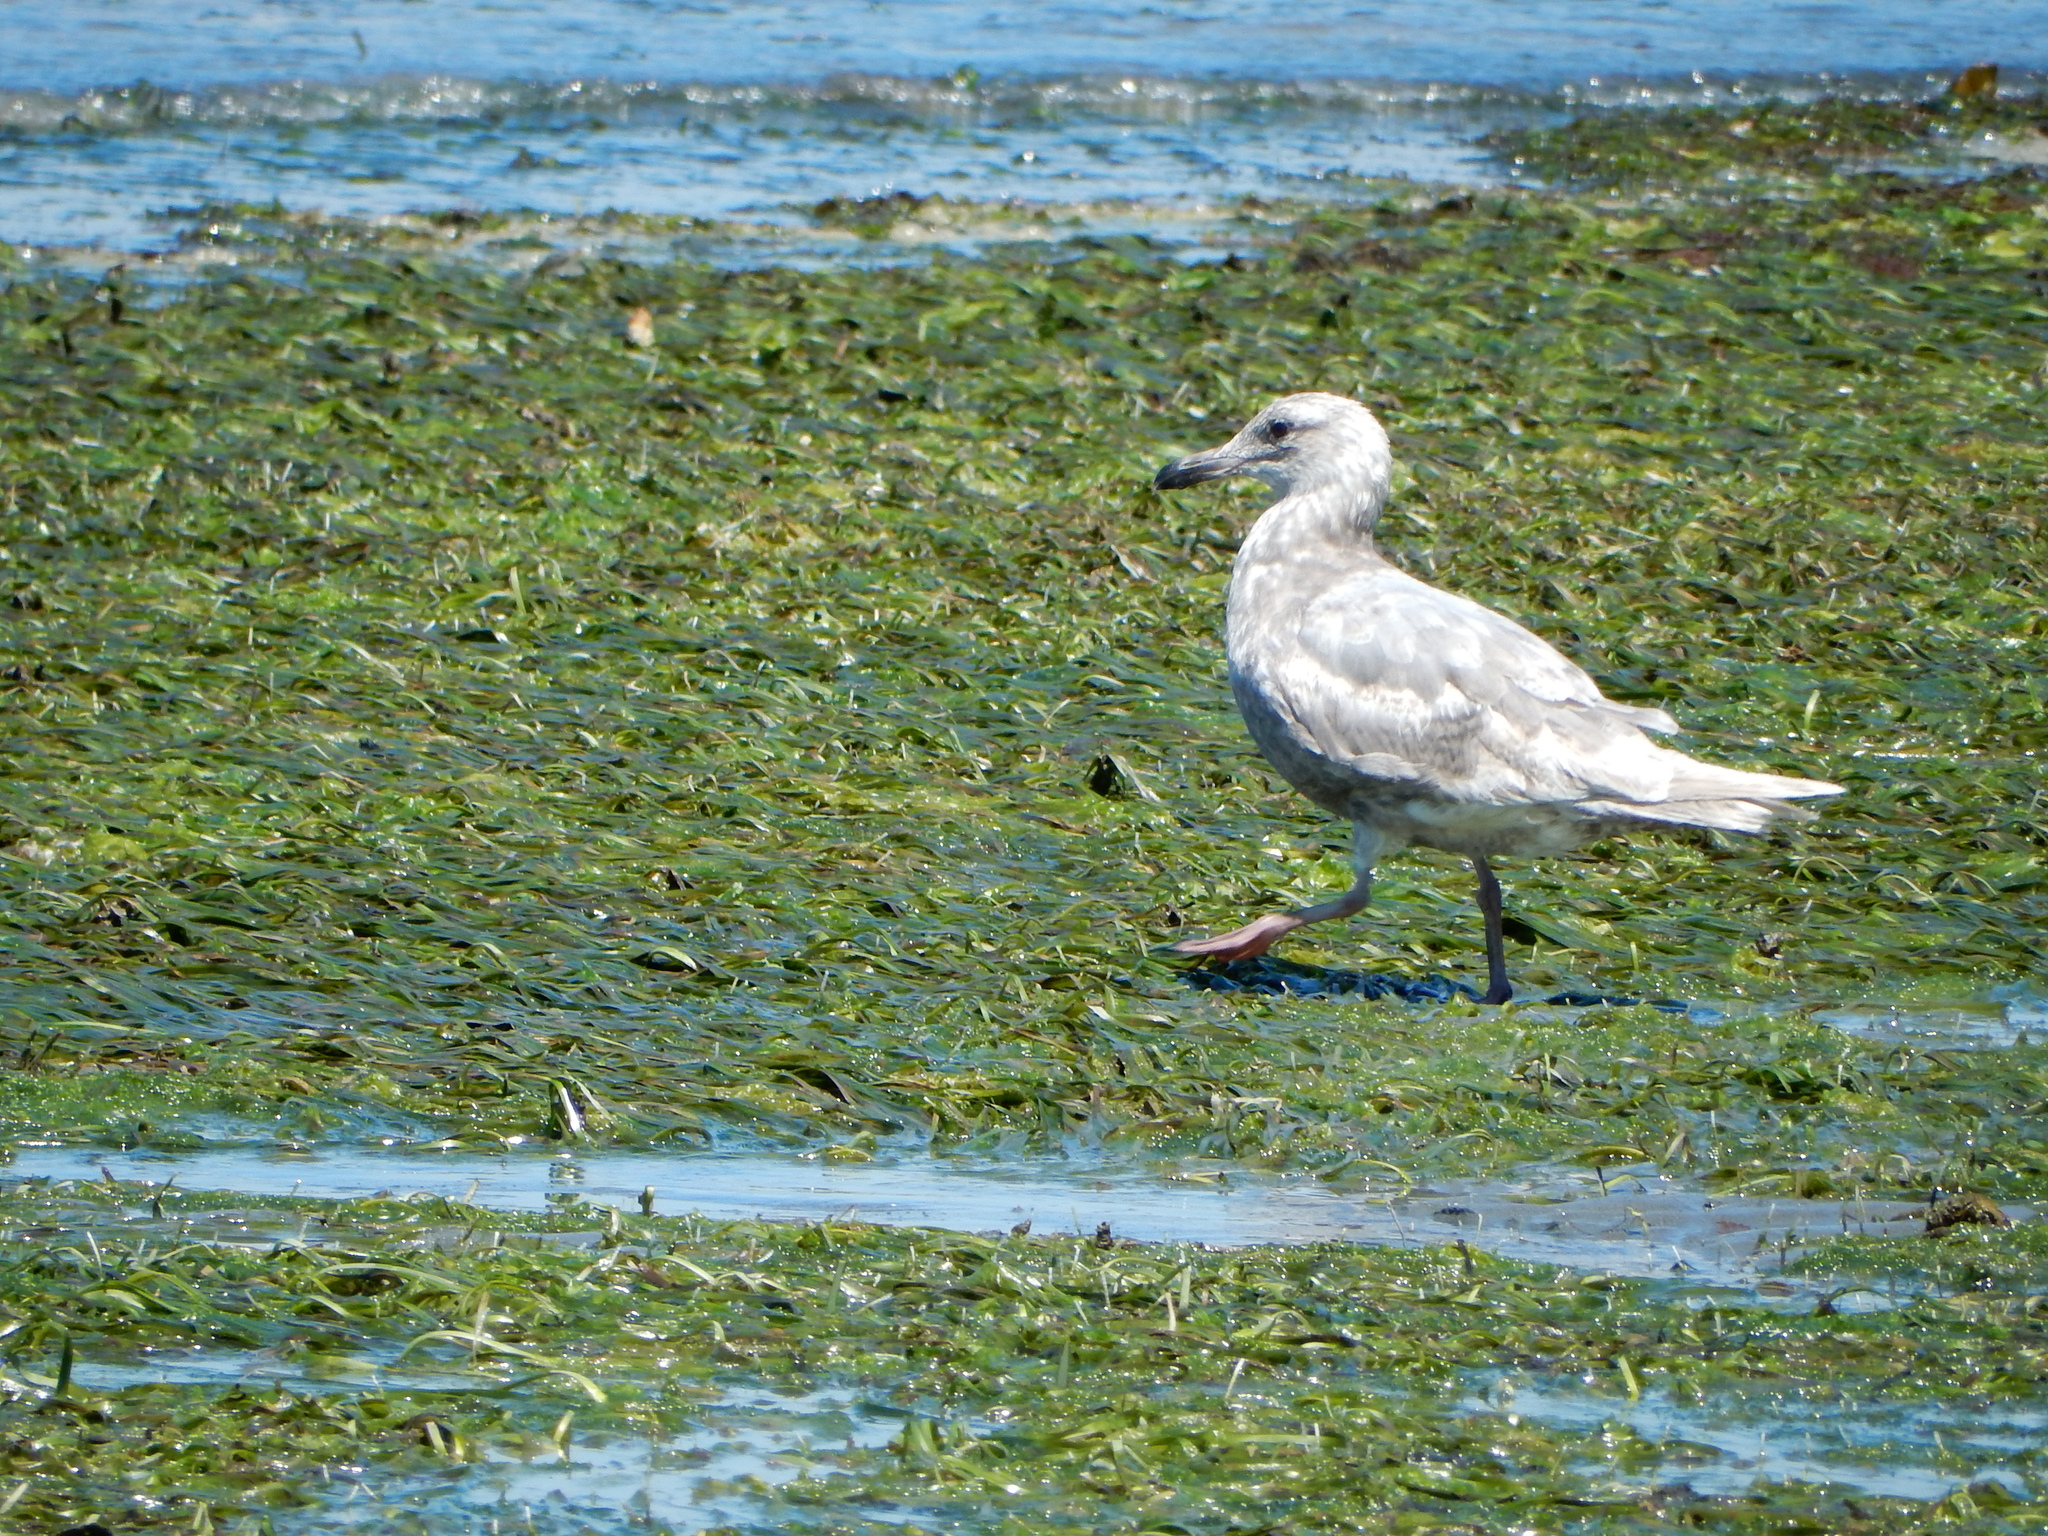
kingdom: Animalia
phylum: Chordata
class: Aves
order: Charadriiformes
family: Laridae
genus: Larus
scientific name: Larus glaucescens
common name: Glaucous-winged gull
